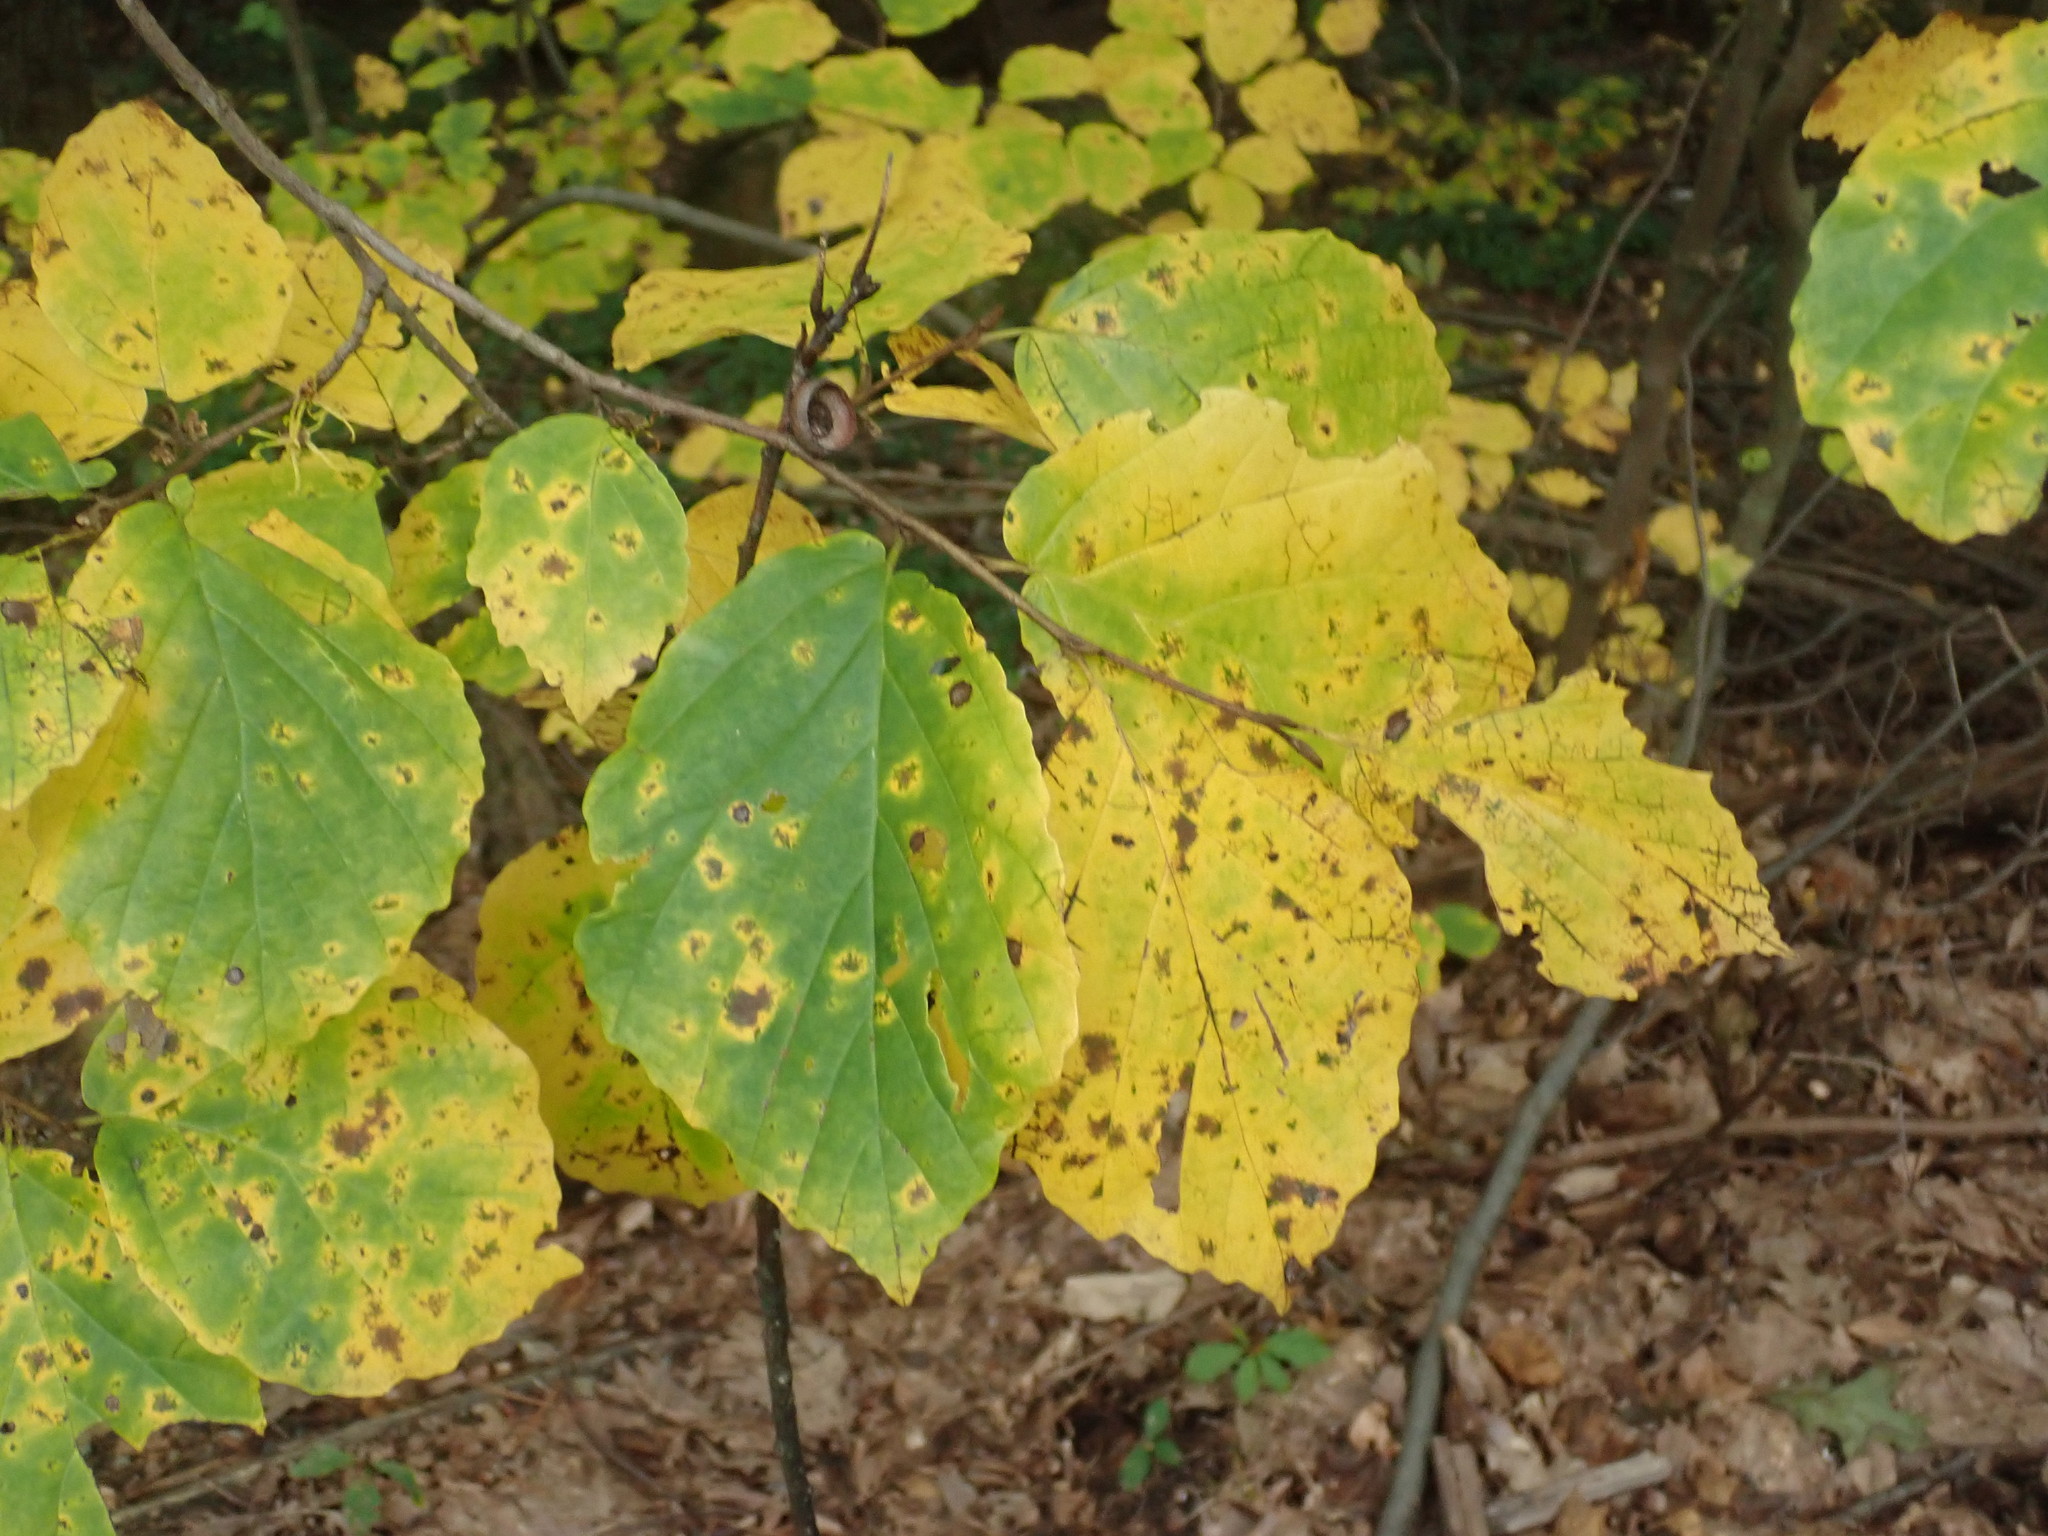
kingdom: Plantae
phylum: Tracheophyta
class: Magnoliopsida
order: Saxifragales
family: Hamamelidaceae
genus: Hamamelis
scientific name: Hamamelis virginiana
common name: Witch-hazel
